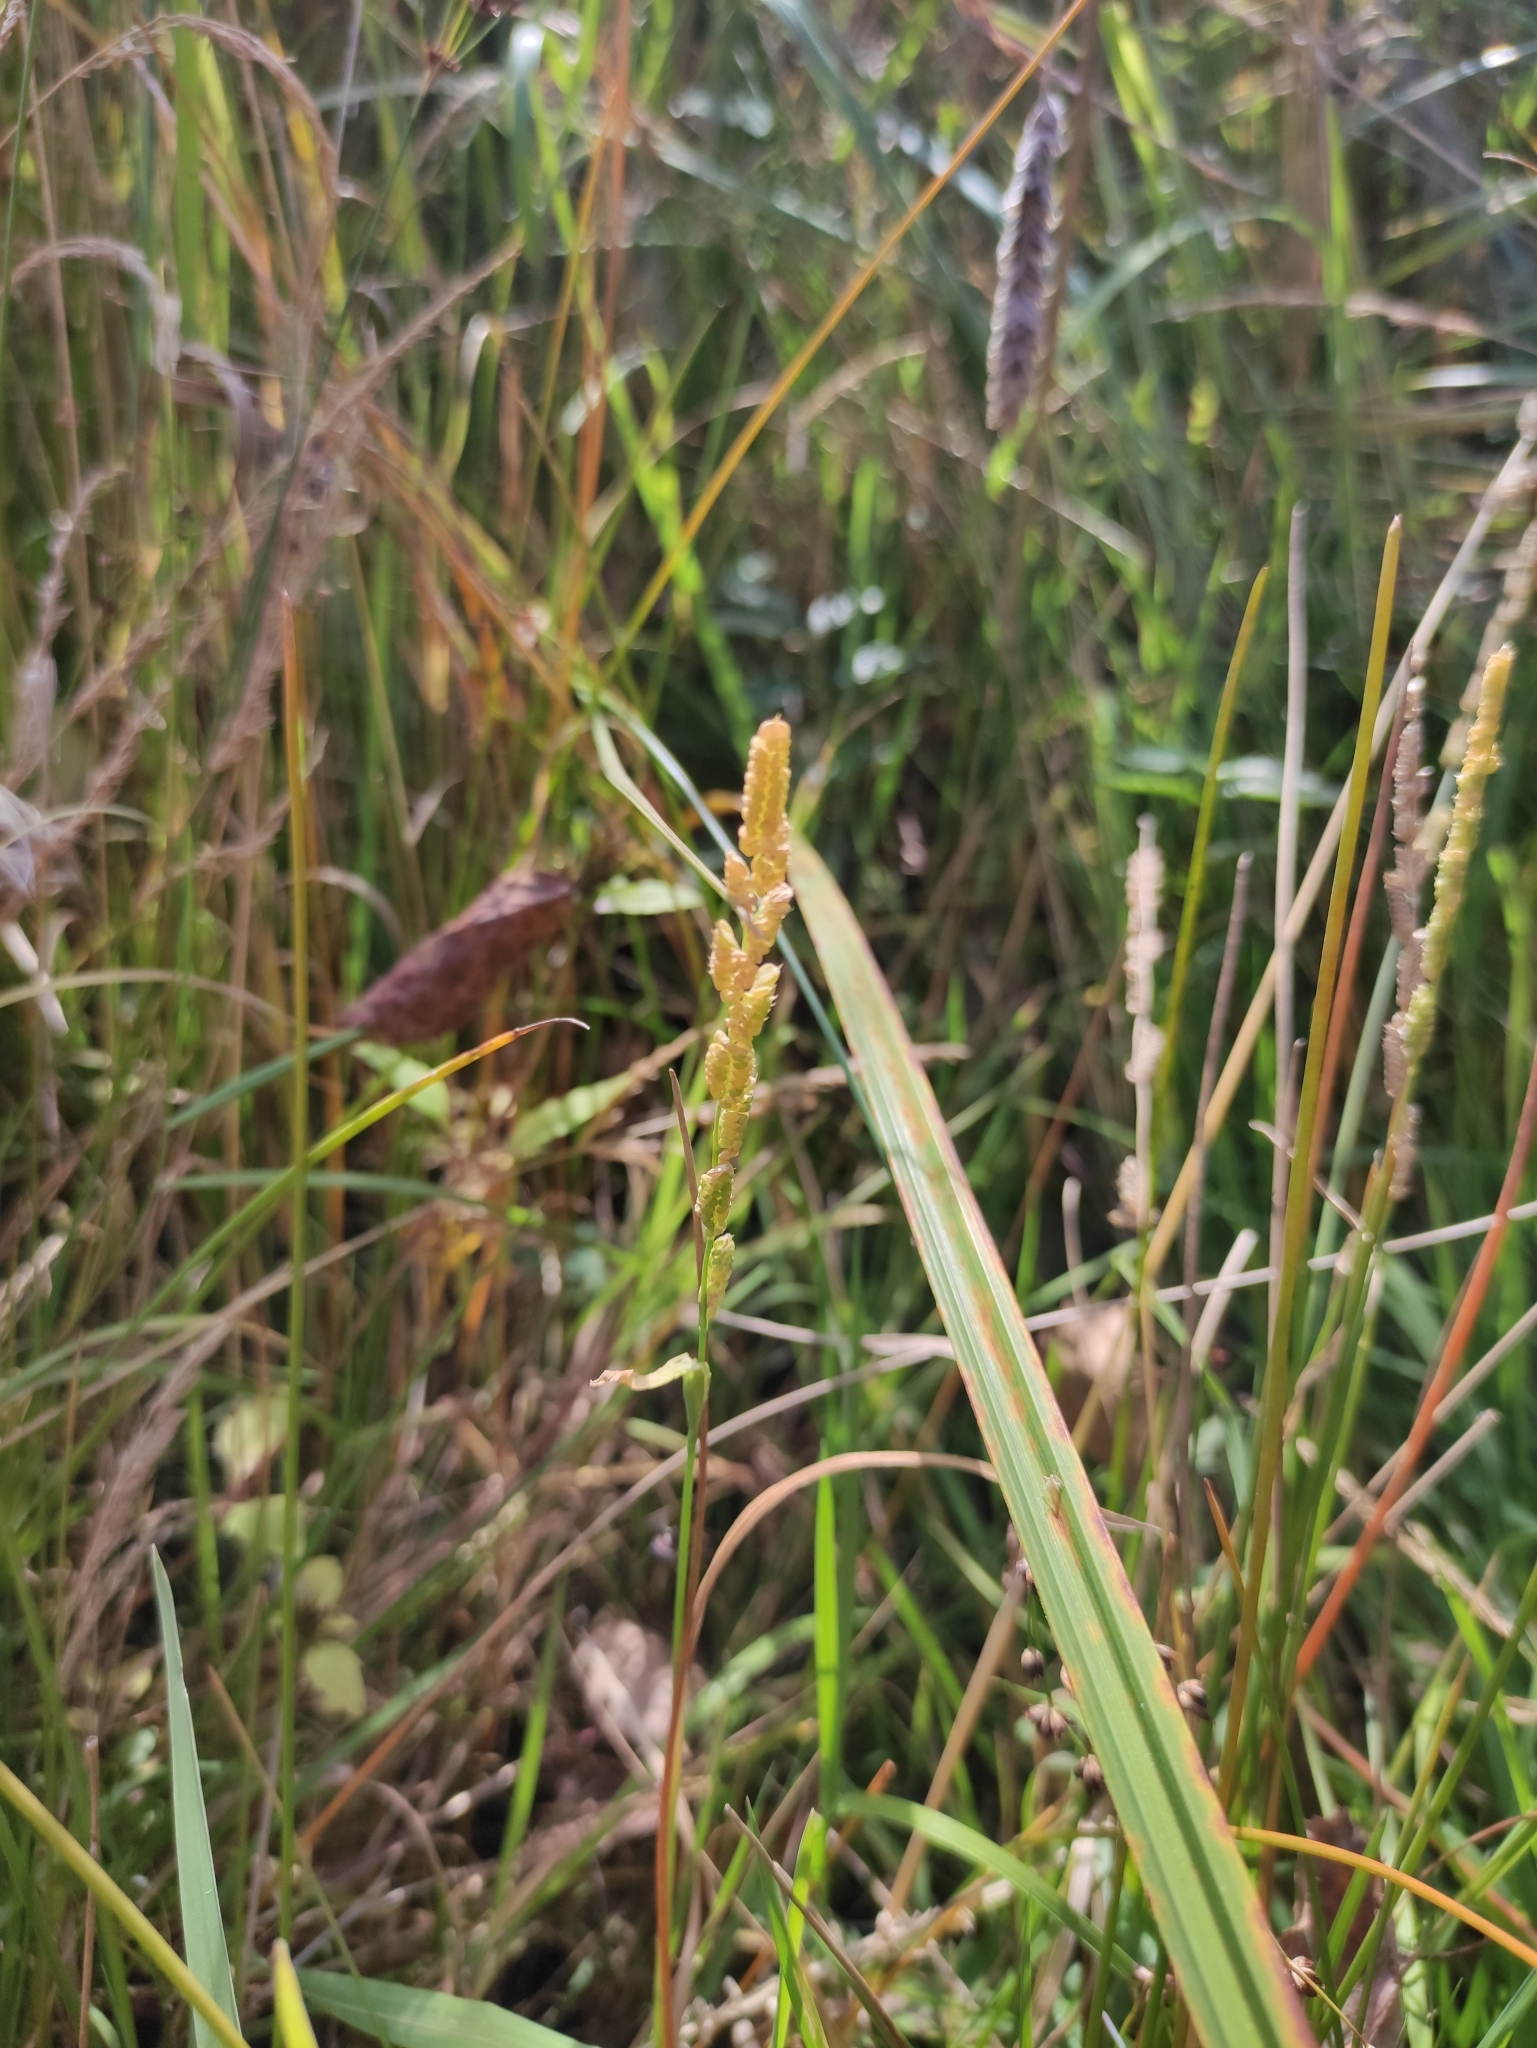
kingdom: Plantae
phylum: Tracheophyta
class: Liliopsida
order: Poales
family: Poaceae
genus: Beckmannia
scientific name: Beckmannia syzigachne
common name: American slough-grass
